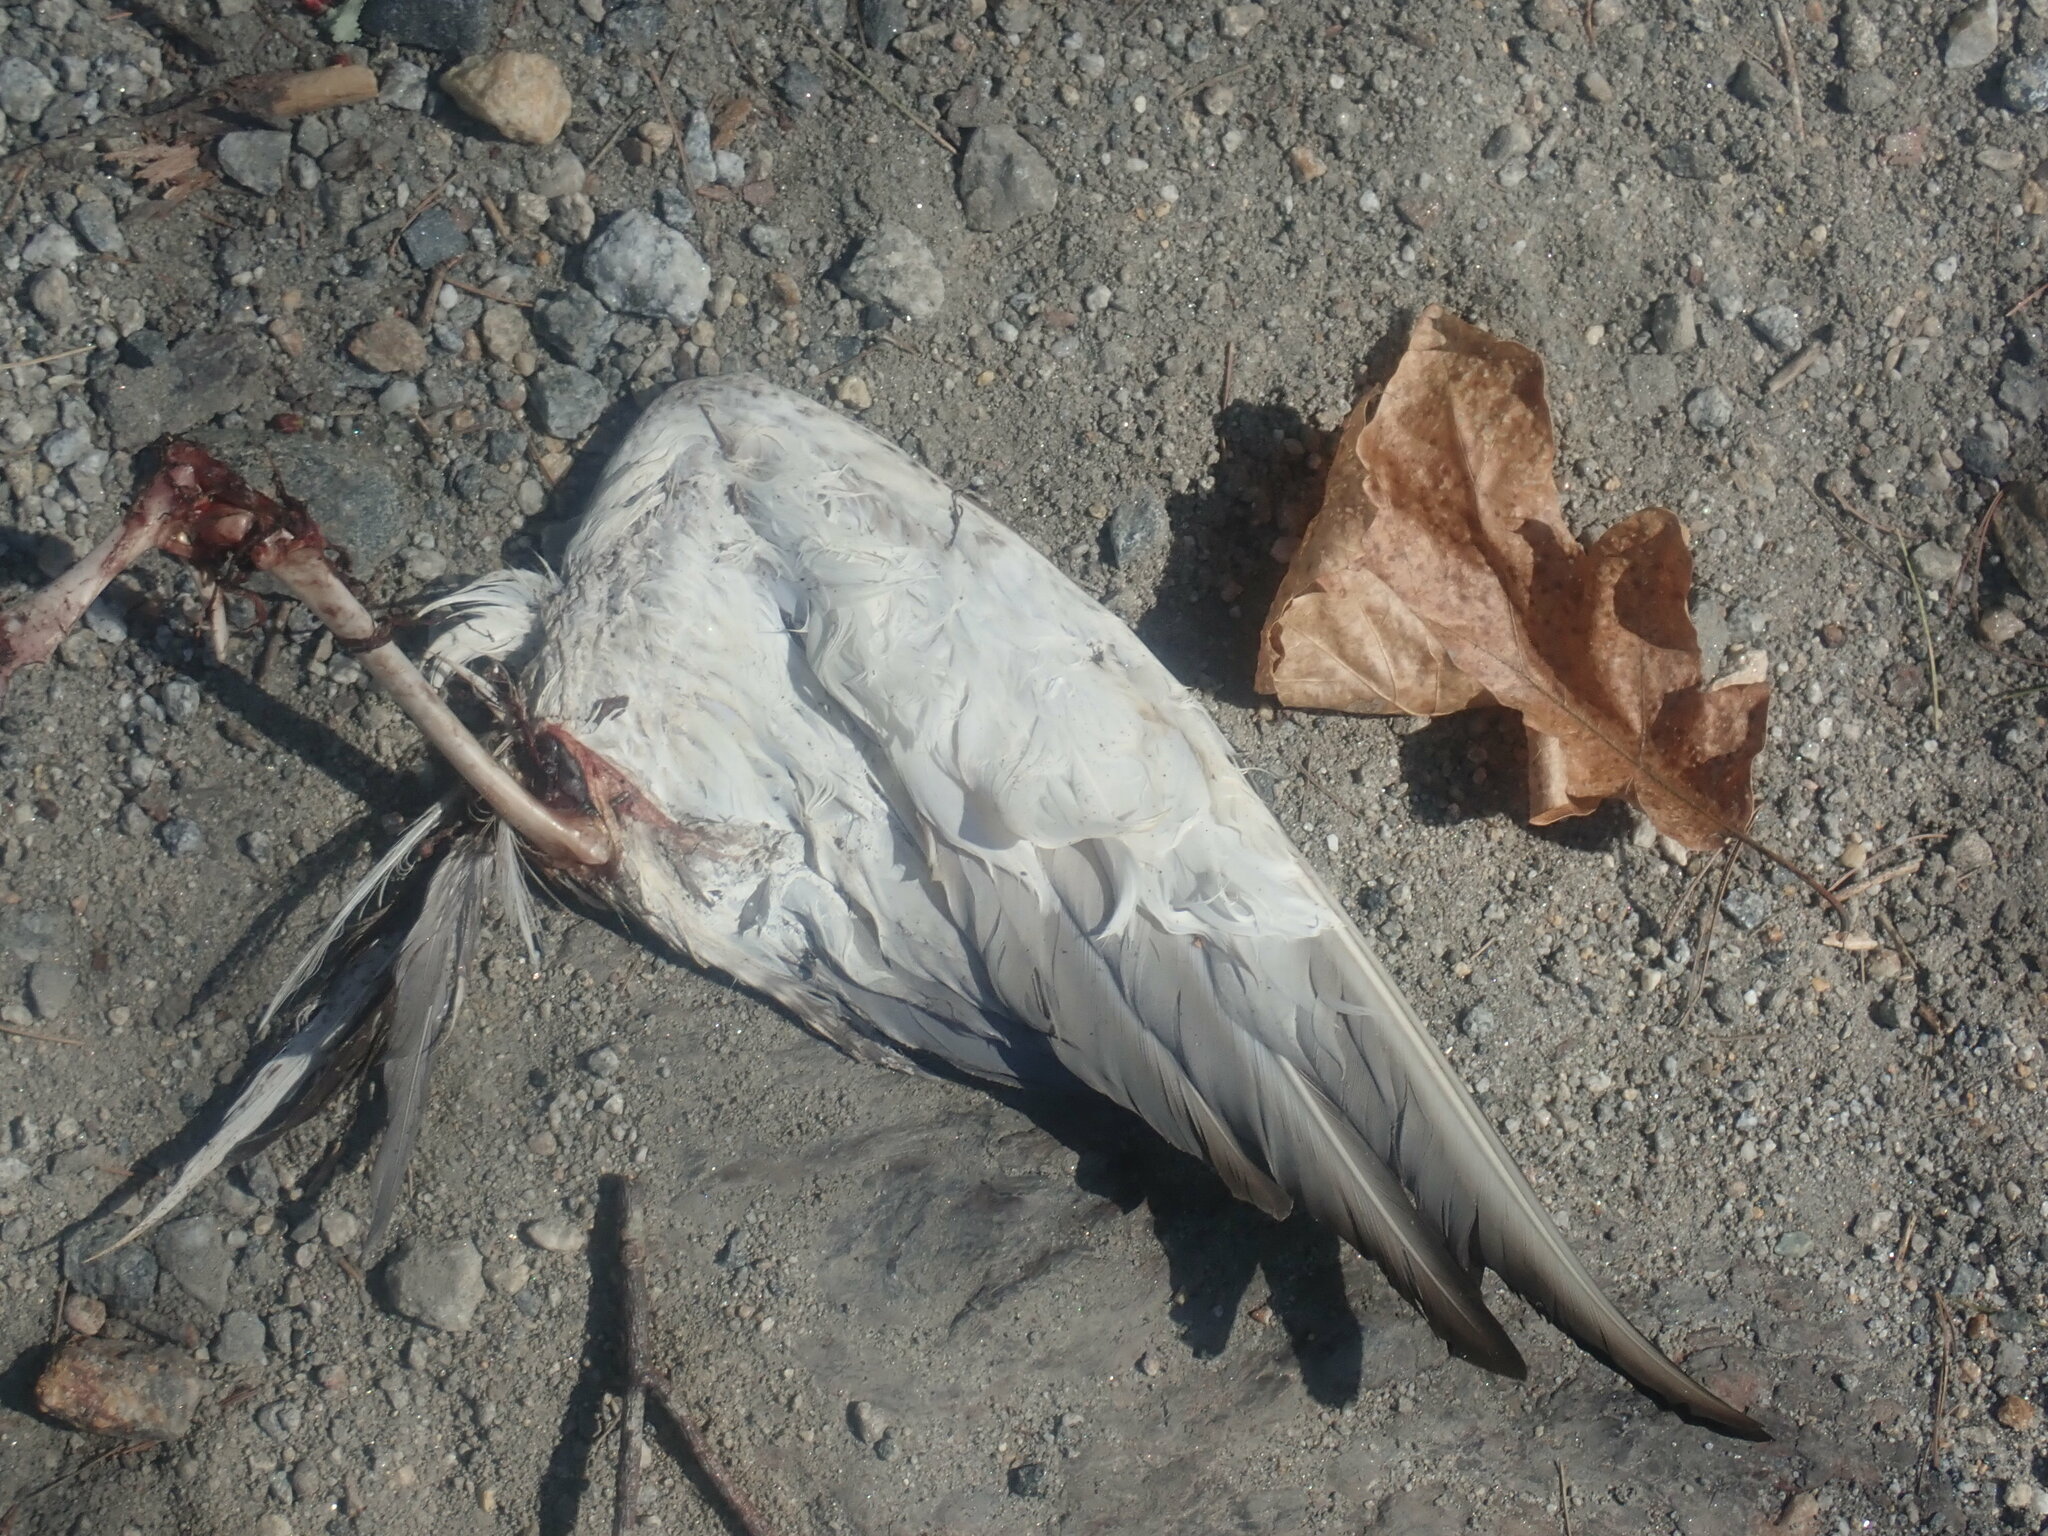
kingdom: Animalia
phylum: Chordata
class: Aves
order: Anseriformes
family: Anatidae
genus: Anas
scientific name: Anas platyrhynchos
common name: Mallard
